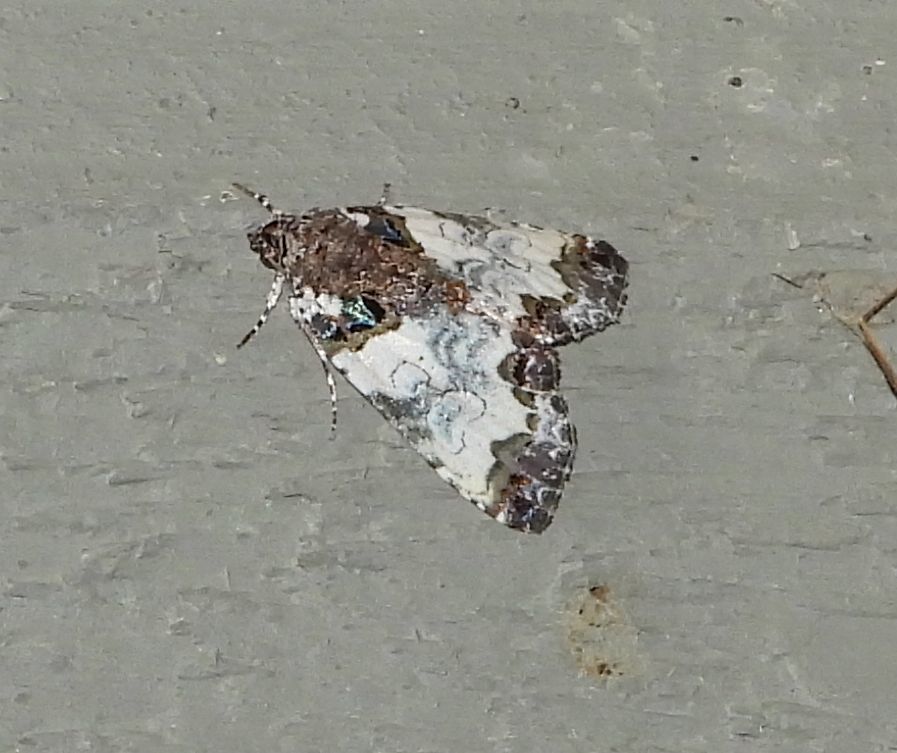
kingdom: Animalia
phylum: Arthropoda
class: Insecta
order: Lepidoptera
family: Noctuidae
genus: Cerma
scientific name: Cerma cerintha
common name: Tufted bird-dropping moth
